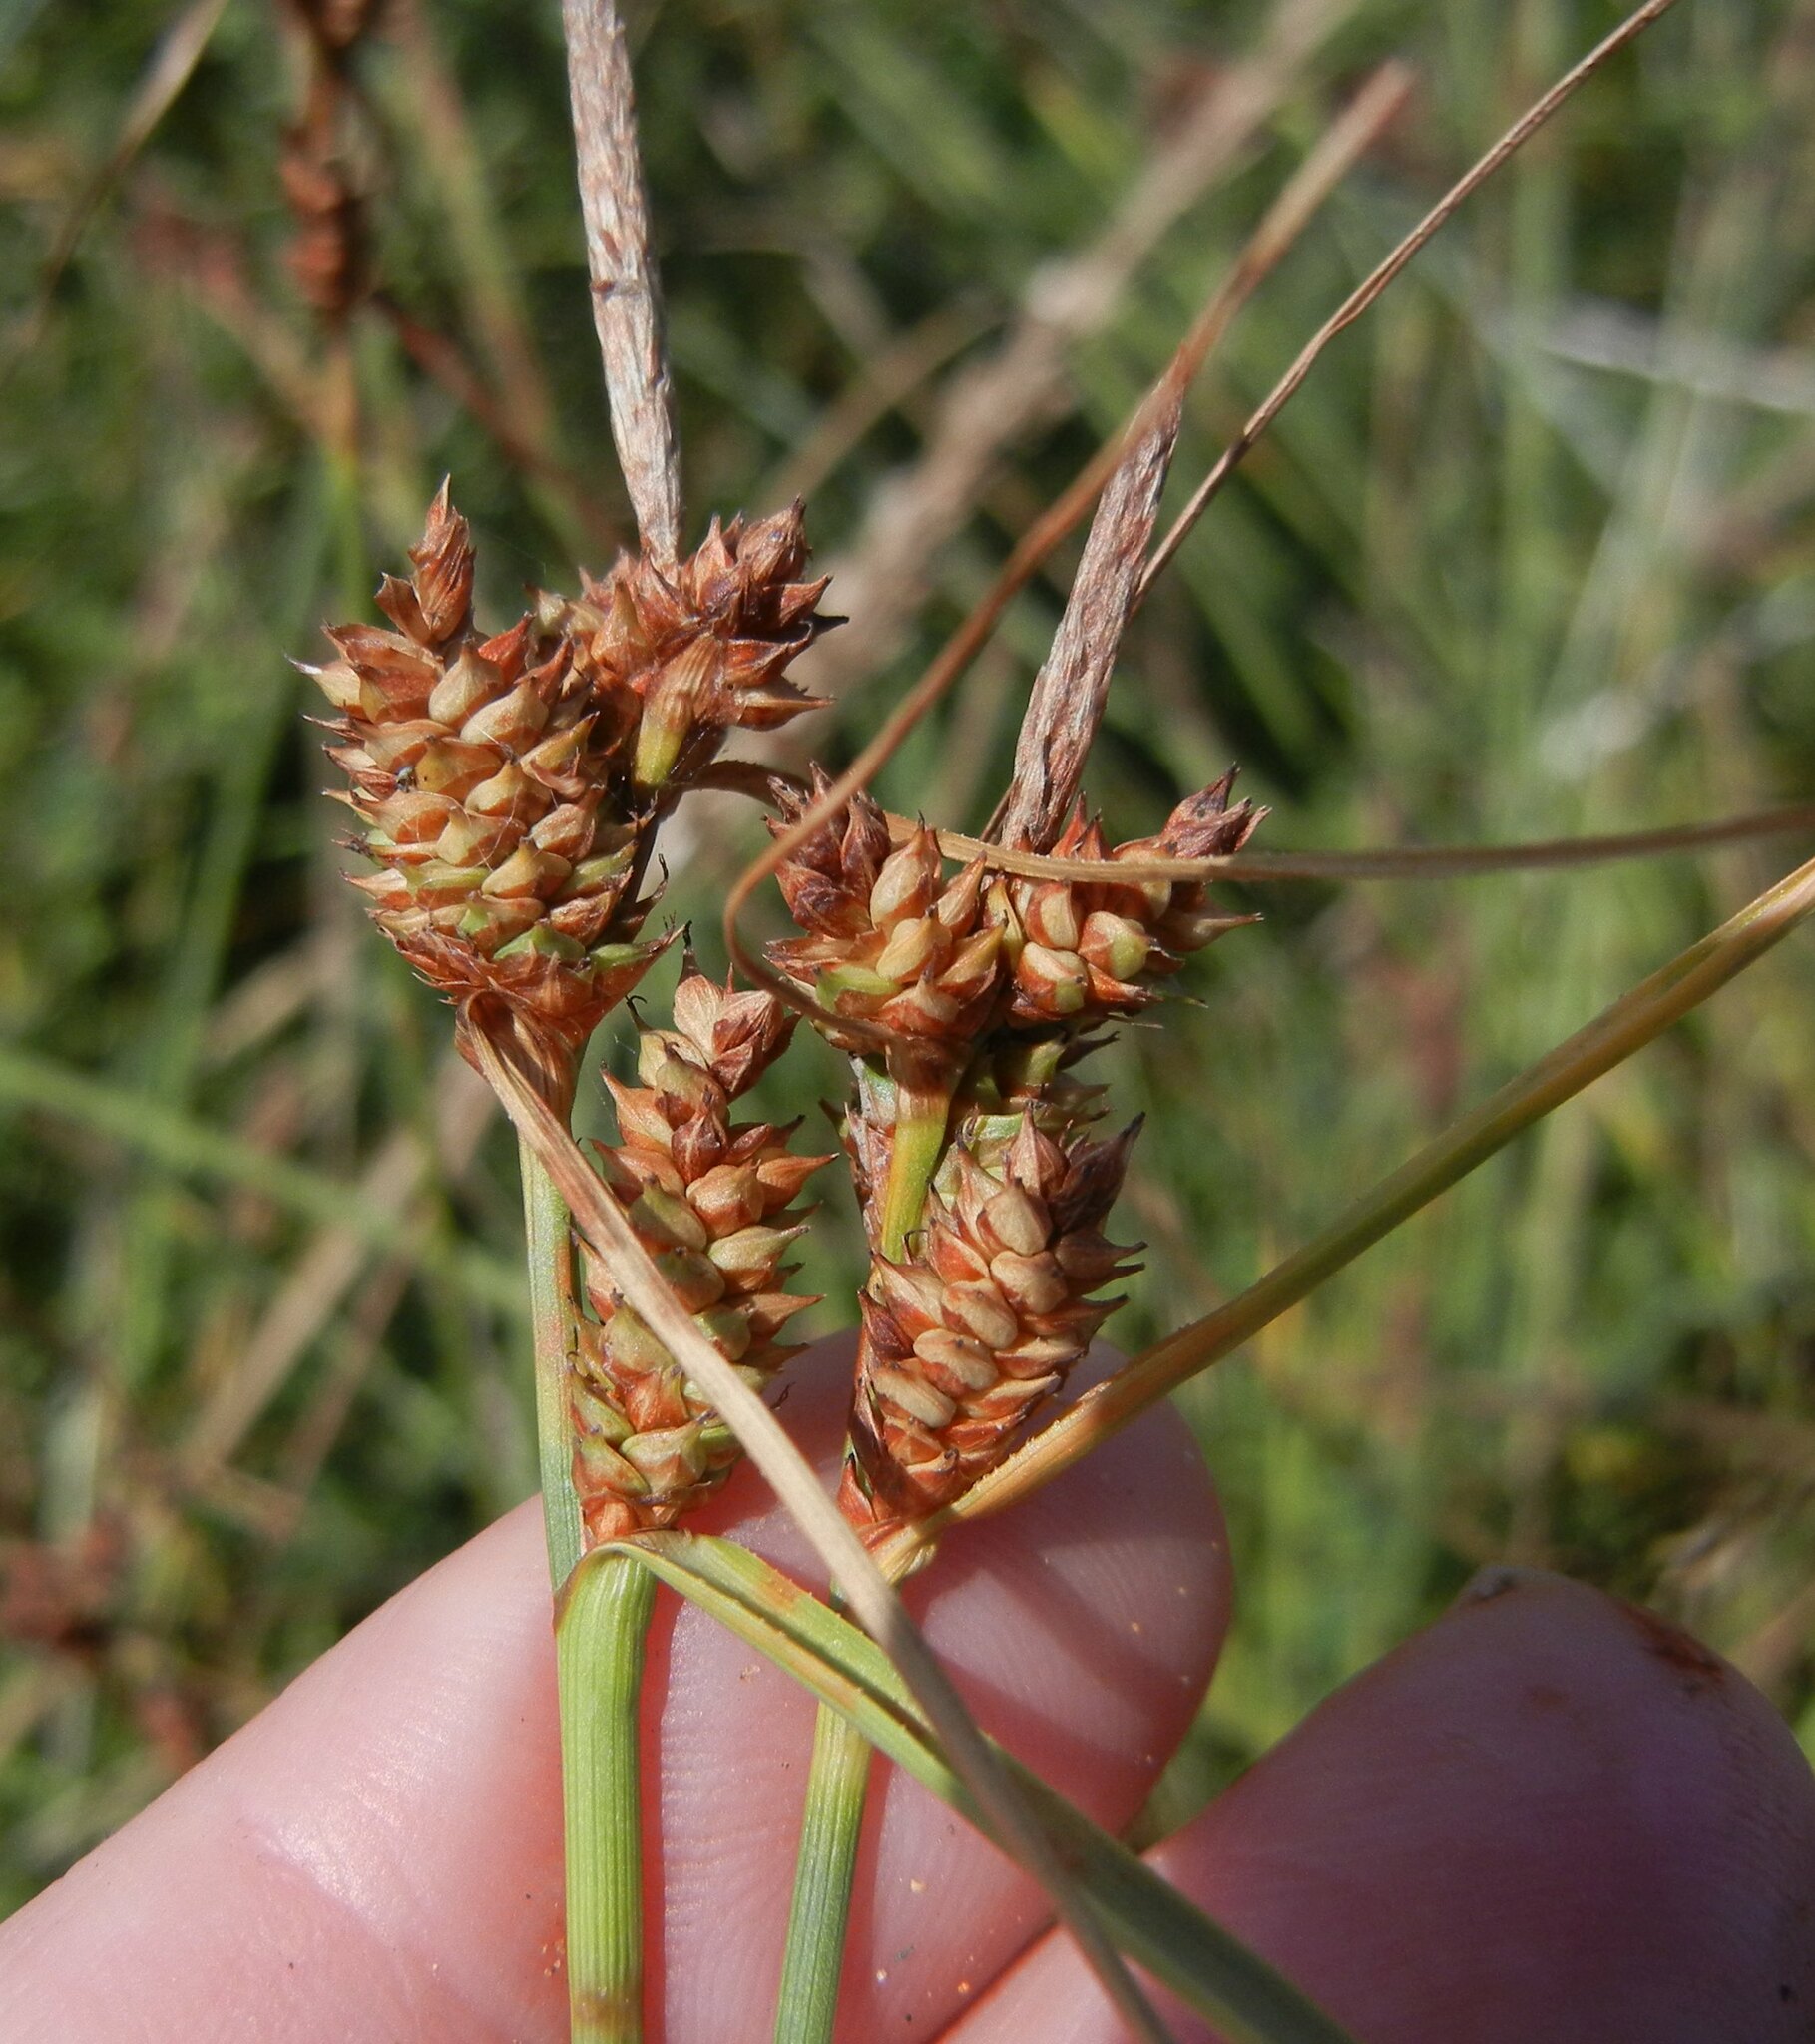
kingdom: Plantae
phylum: Tracheophyta
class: Liliopsida
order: Poales
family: Cyperaceae
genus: Carex
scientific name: Carex extensa
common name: Long-bracted sedge
